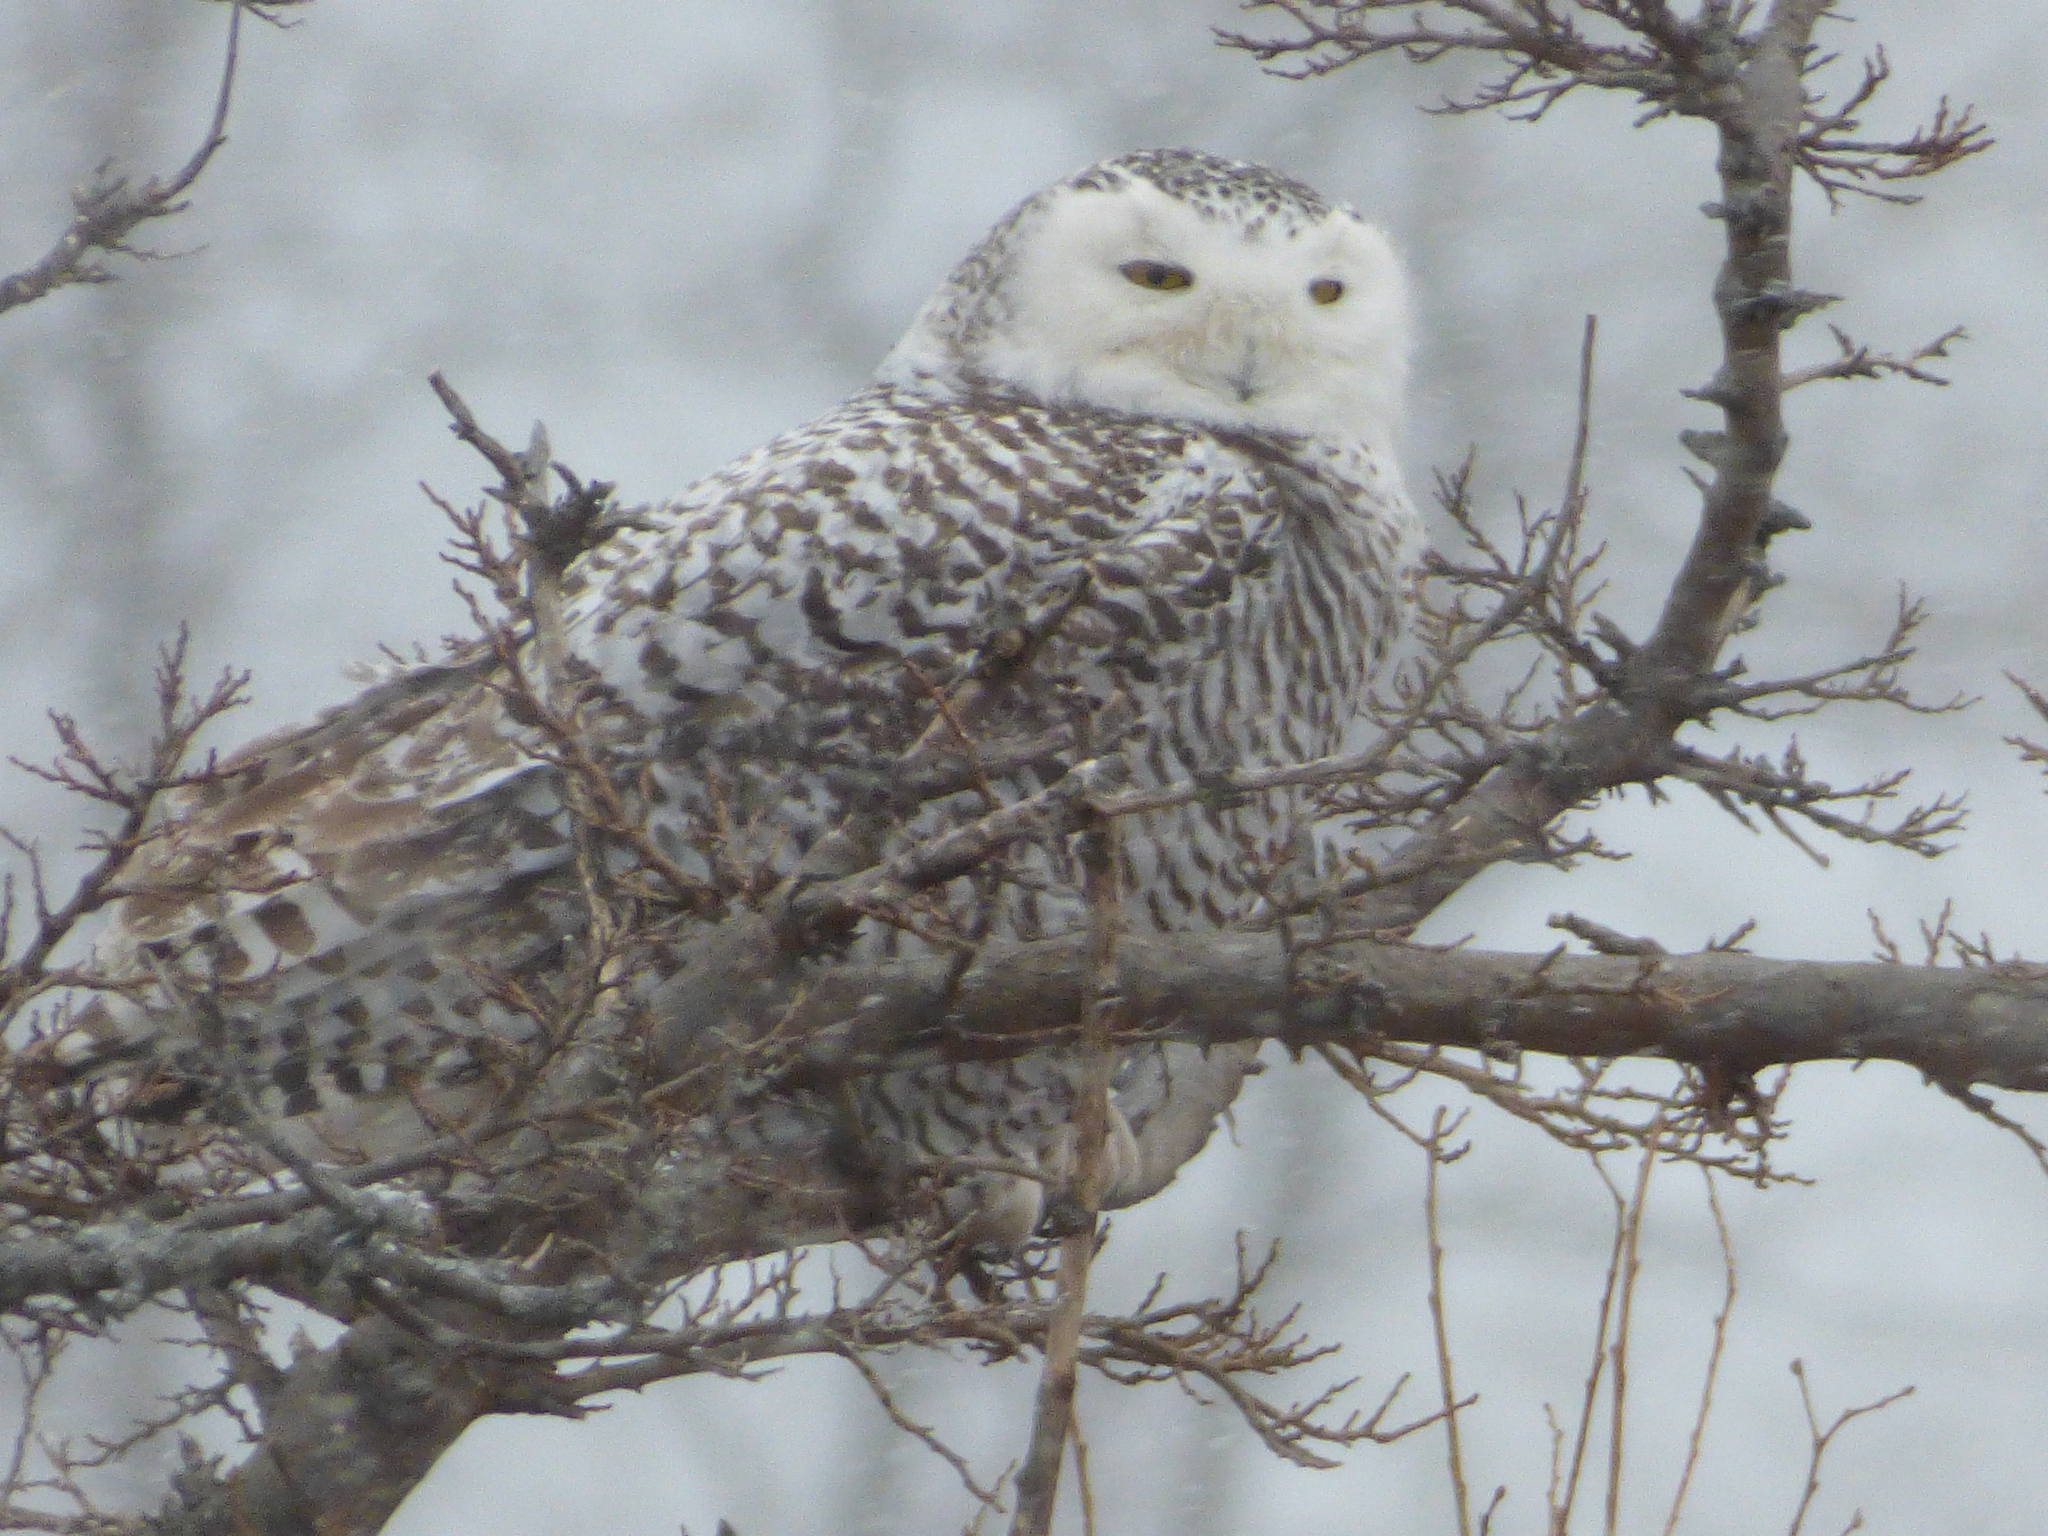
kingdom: Animalia
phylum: Chordata
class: Aves
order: Strigiformes
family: Strigidae
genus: Bubo
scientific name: Bubo scandiacus
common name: Snowy owl
